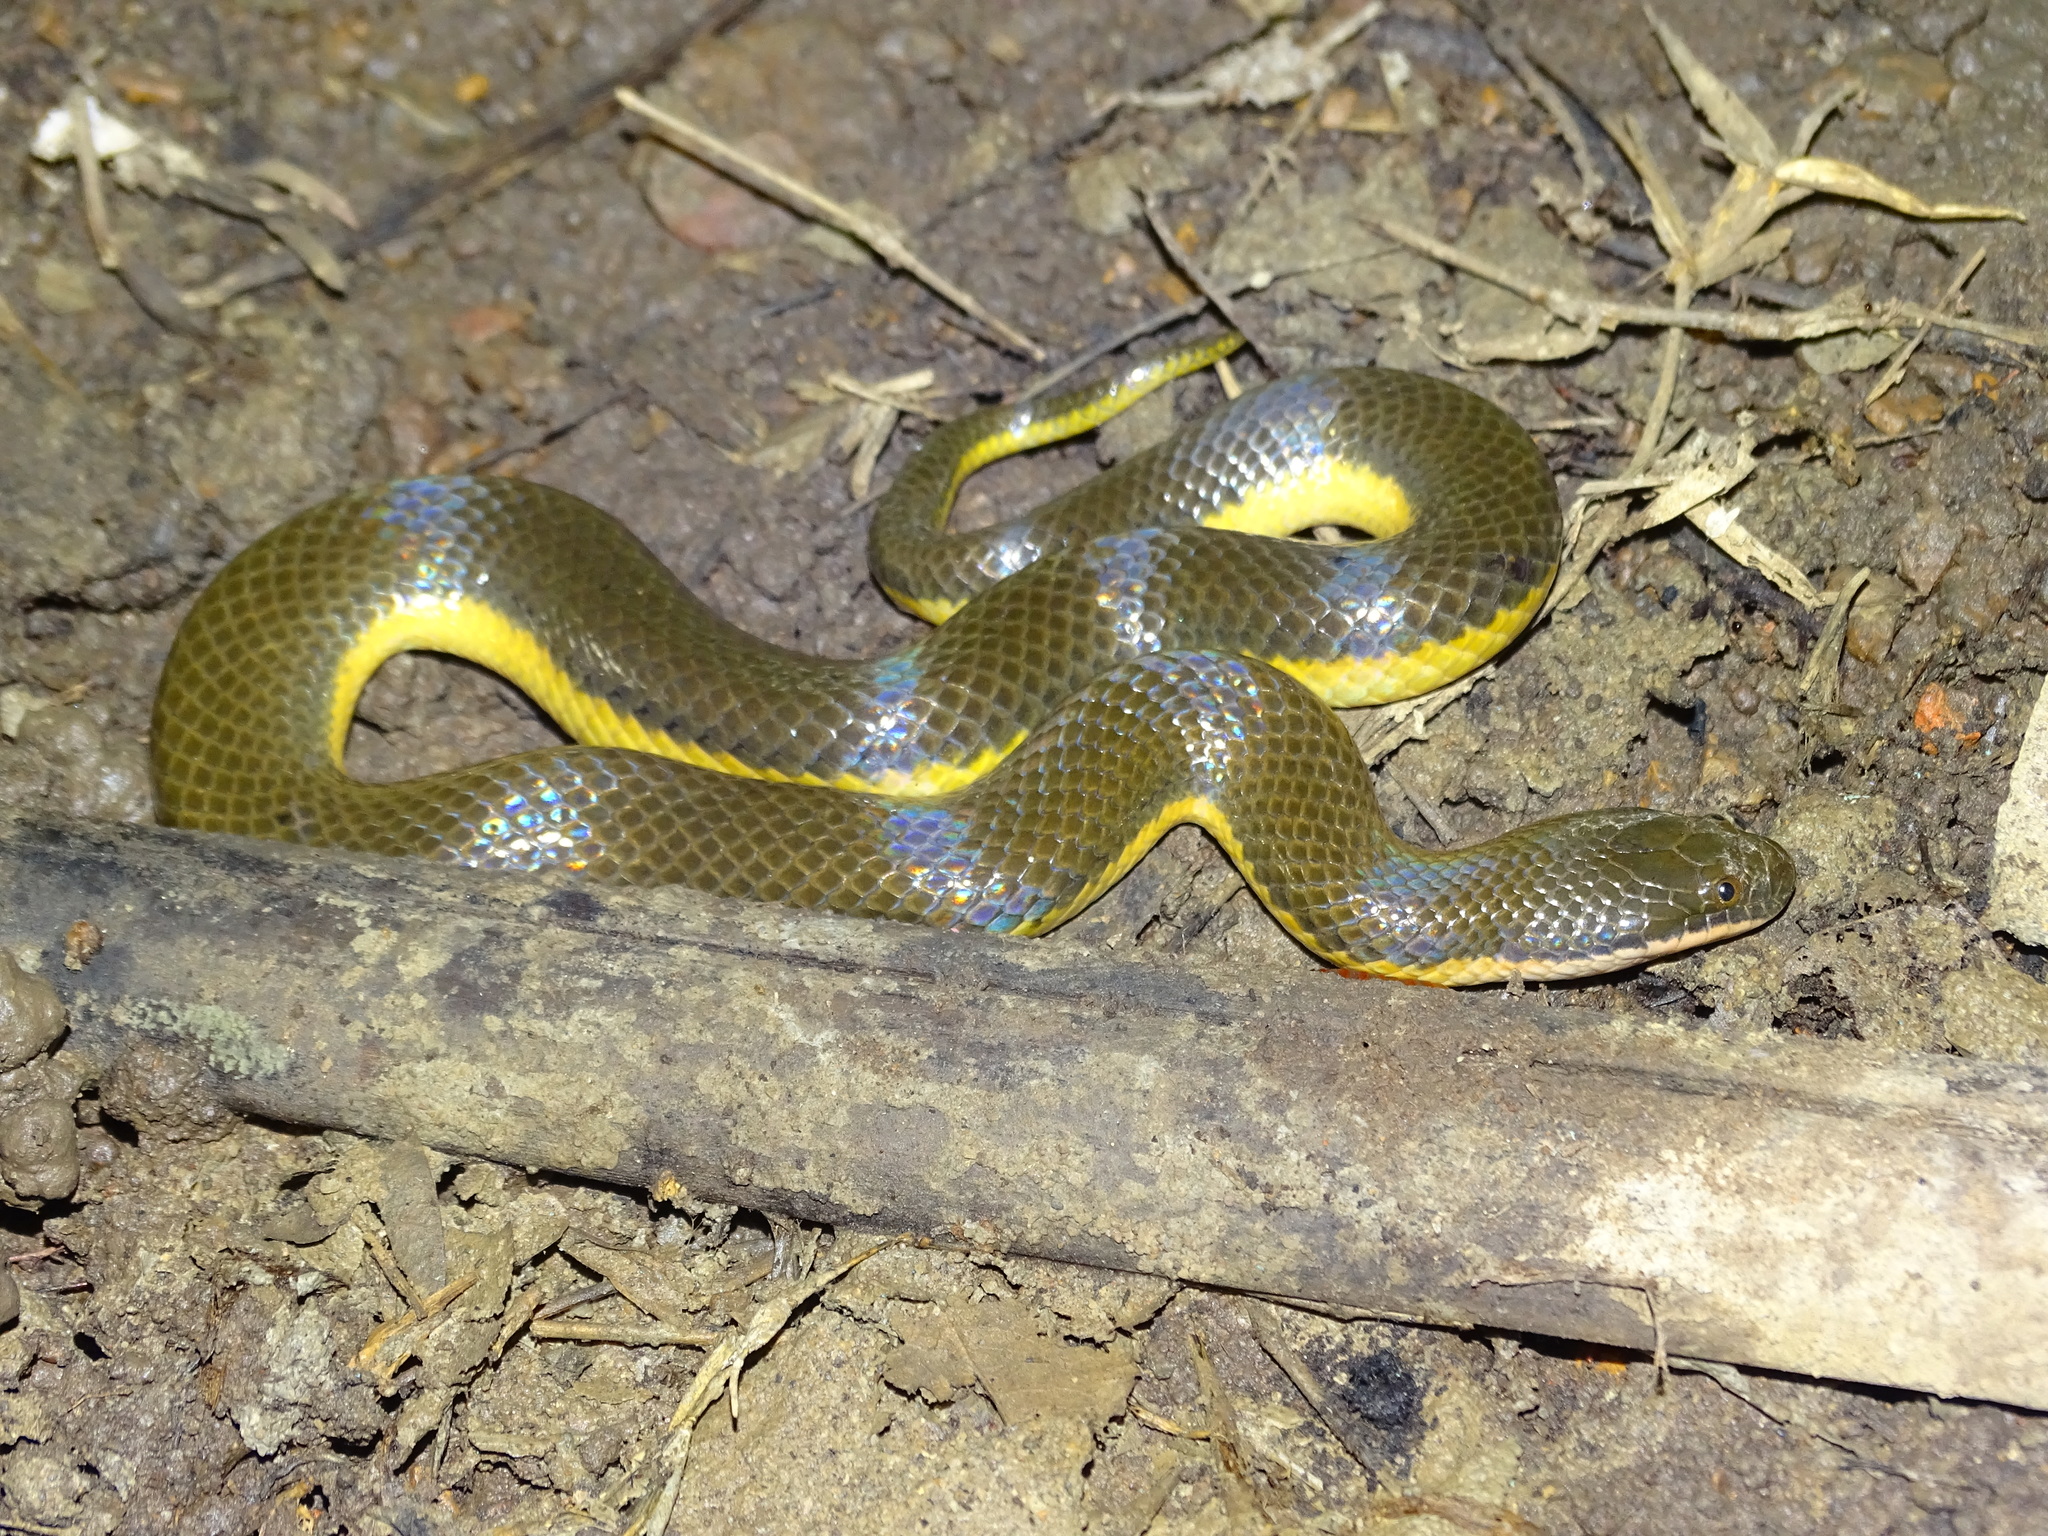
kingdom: Animalia
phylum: Chordata
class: Squamata
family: Homalopsidae
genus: Hypsiscopus
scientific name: Hypsiscopus
